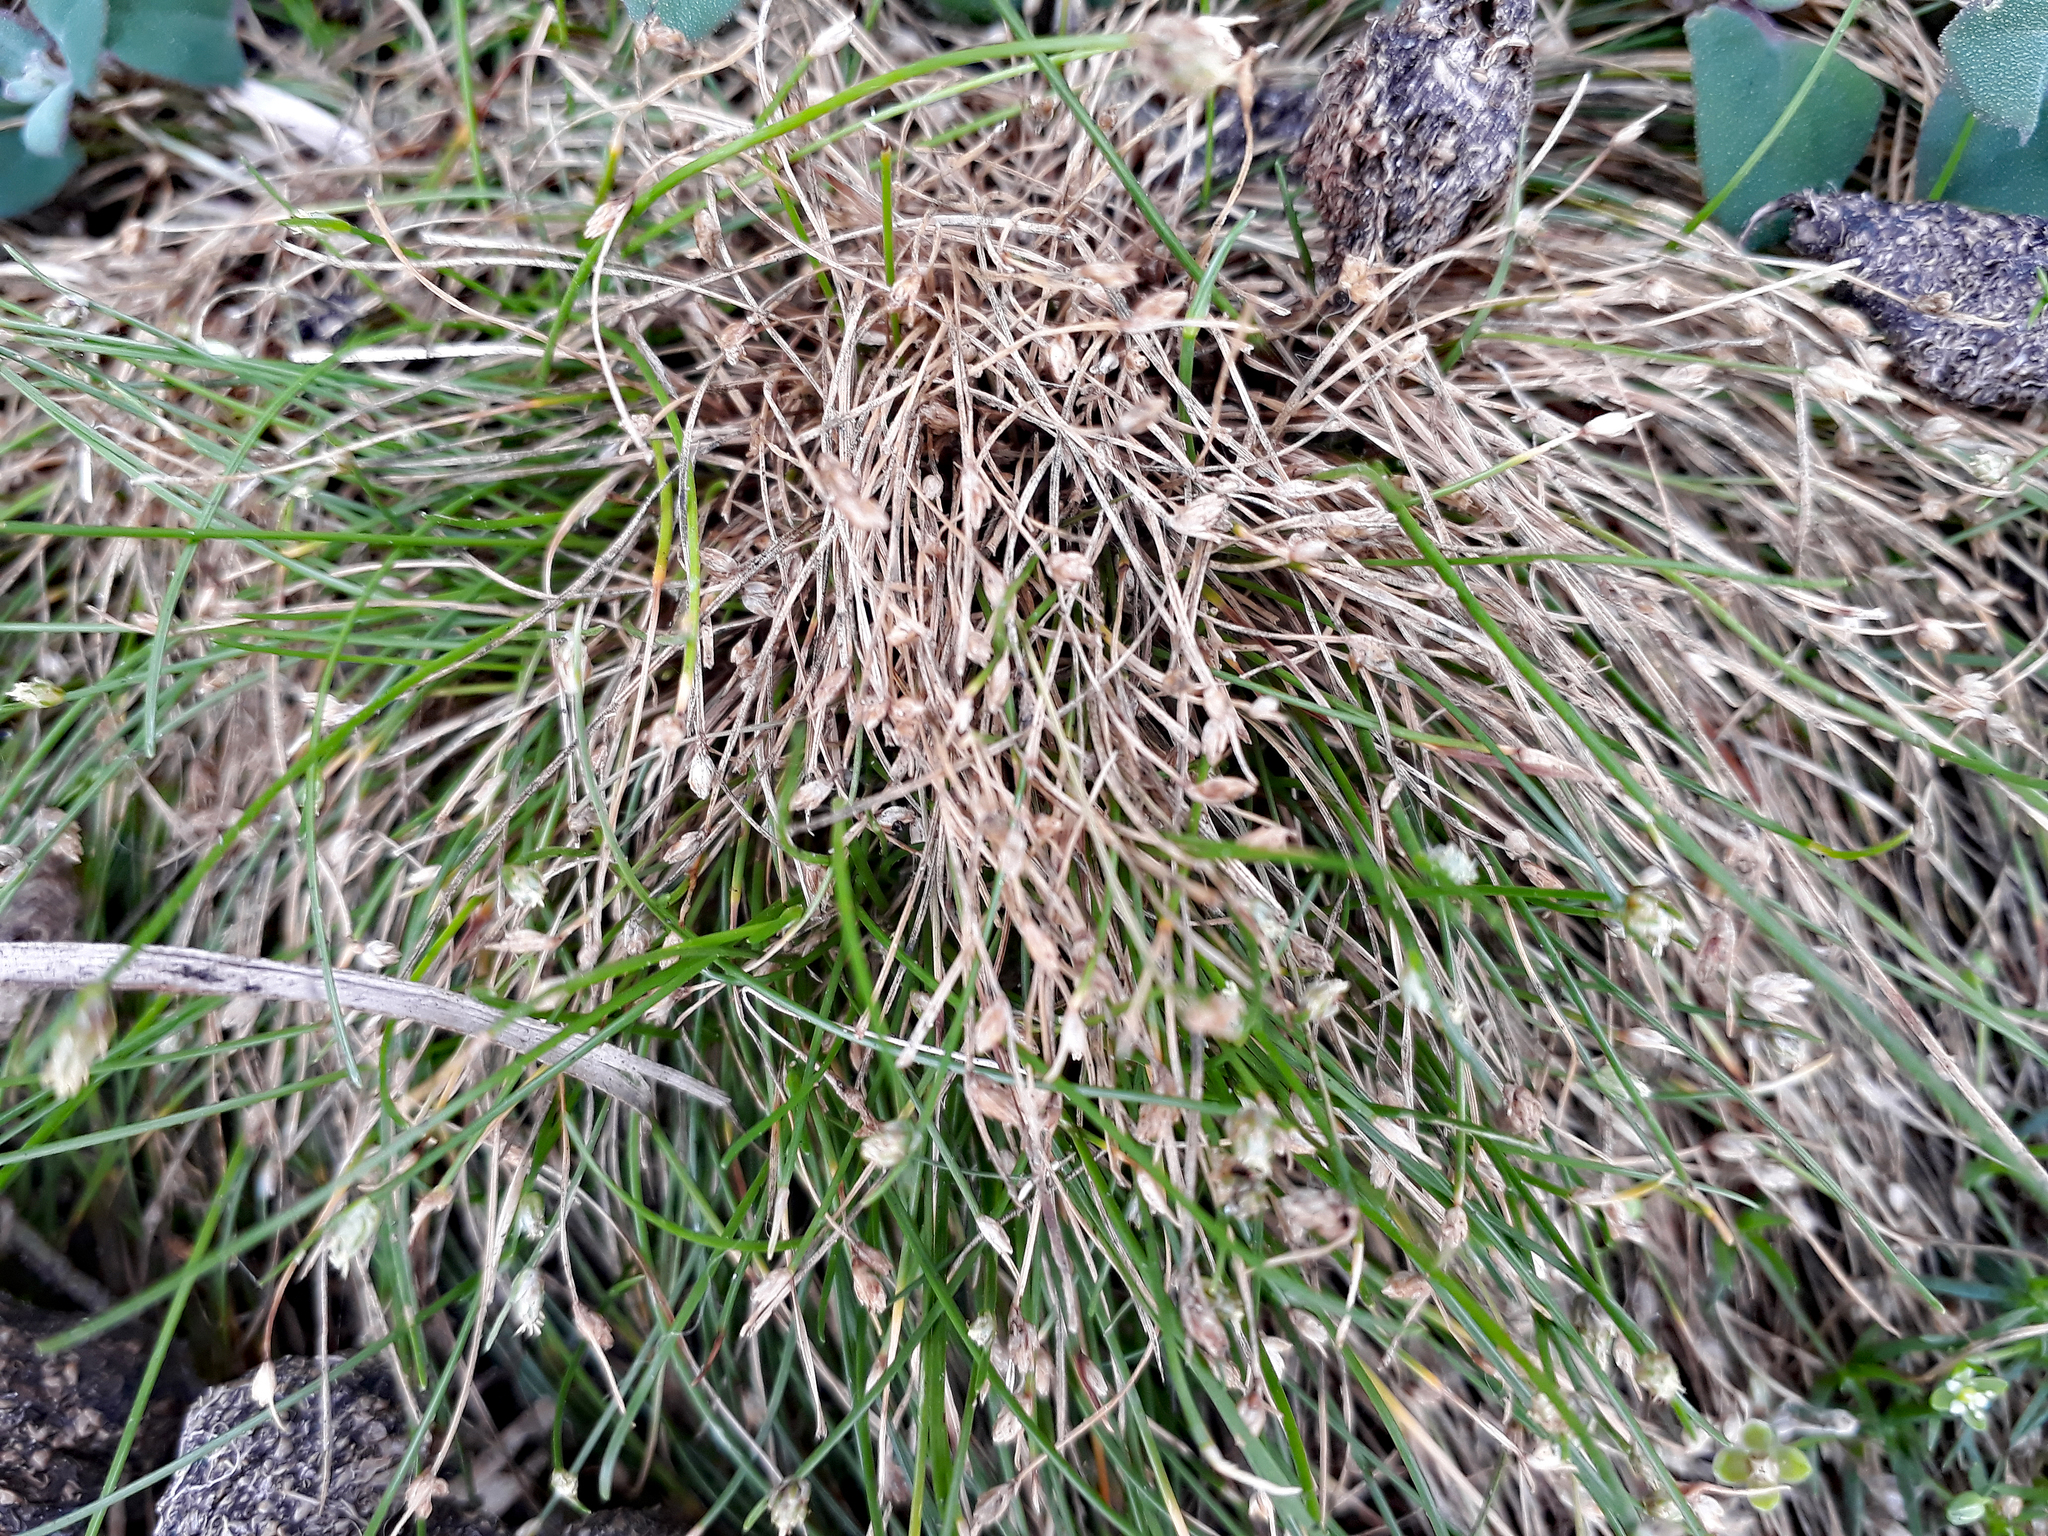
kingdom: Plantae
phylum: Tracheophyta
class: Liliopsida
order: Poales
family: Cyperaceae
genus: Isolepis
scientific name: Isolepis cernua
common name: Slender club-rush
